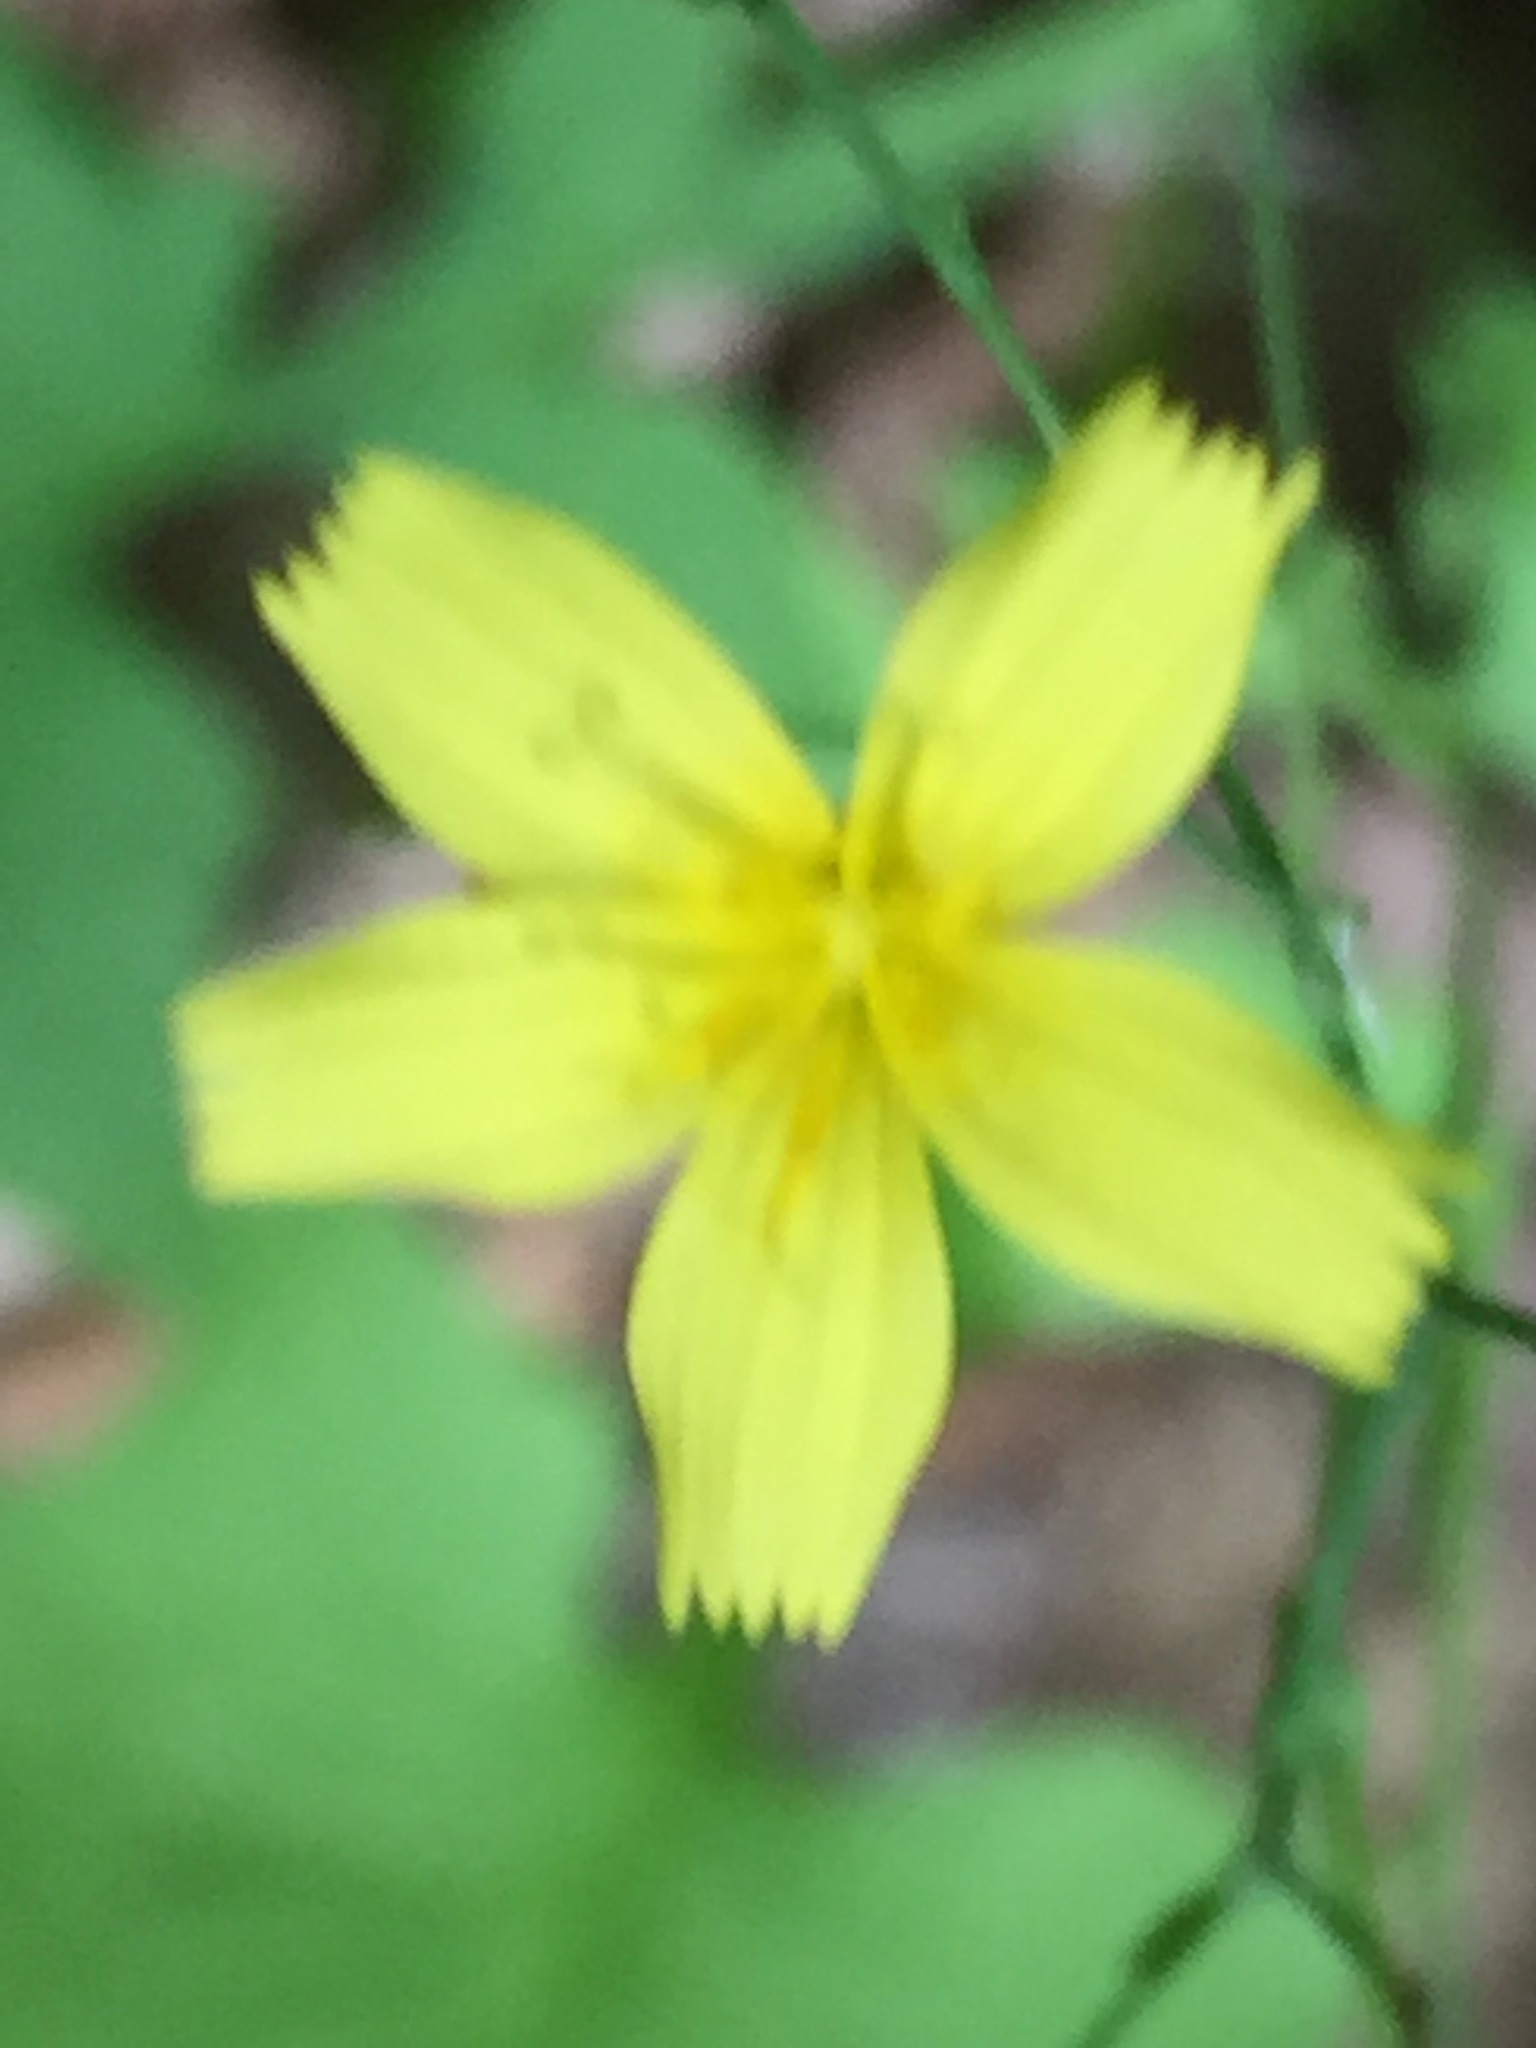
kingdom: Plantae
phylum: Tracheophyta
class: Magnoliopsida
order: Asterales
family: Asteraceae
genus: Mycelis
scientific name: Mycelis muralis
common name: Wall lettuce
